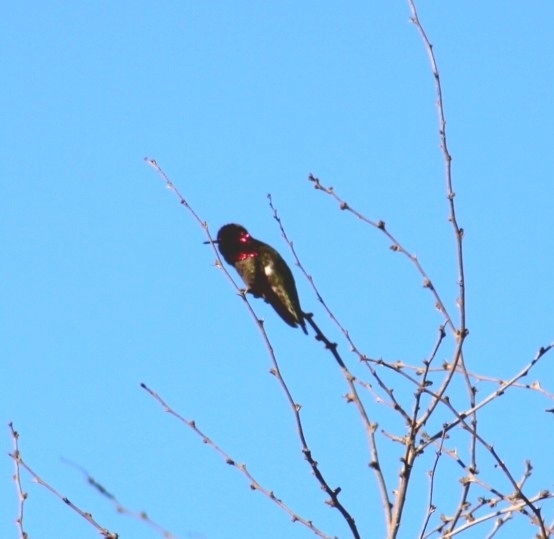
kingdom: Animalia
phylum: Chordata
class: Aves
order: Apodiformes
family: Trochilidae
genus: Calypte
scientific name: Calypte anna
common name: Anna's hummingbird
